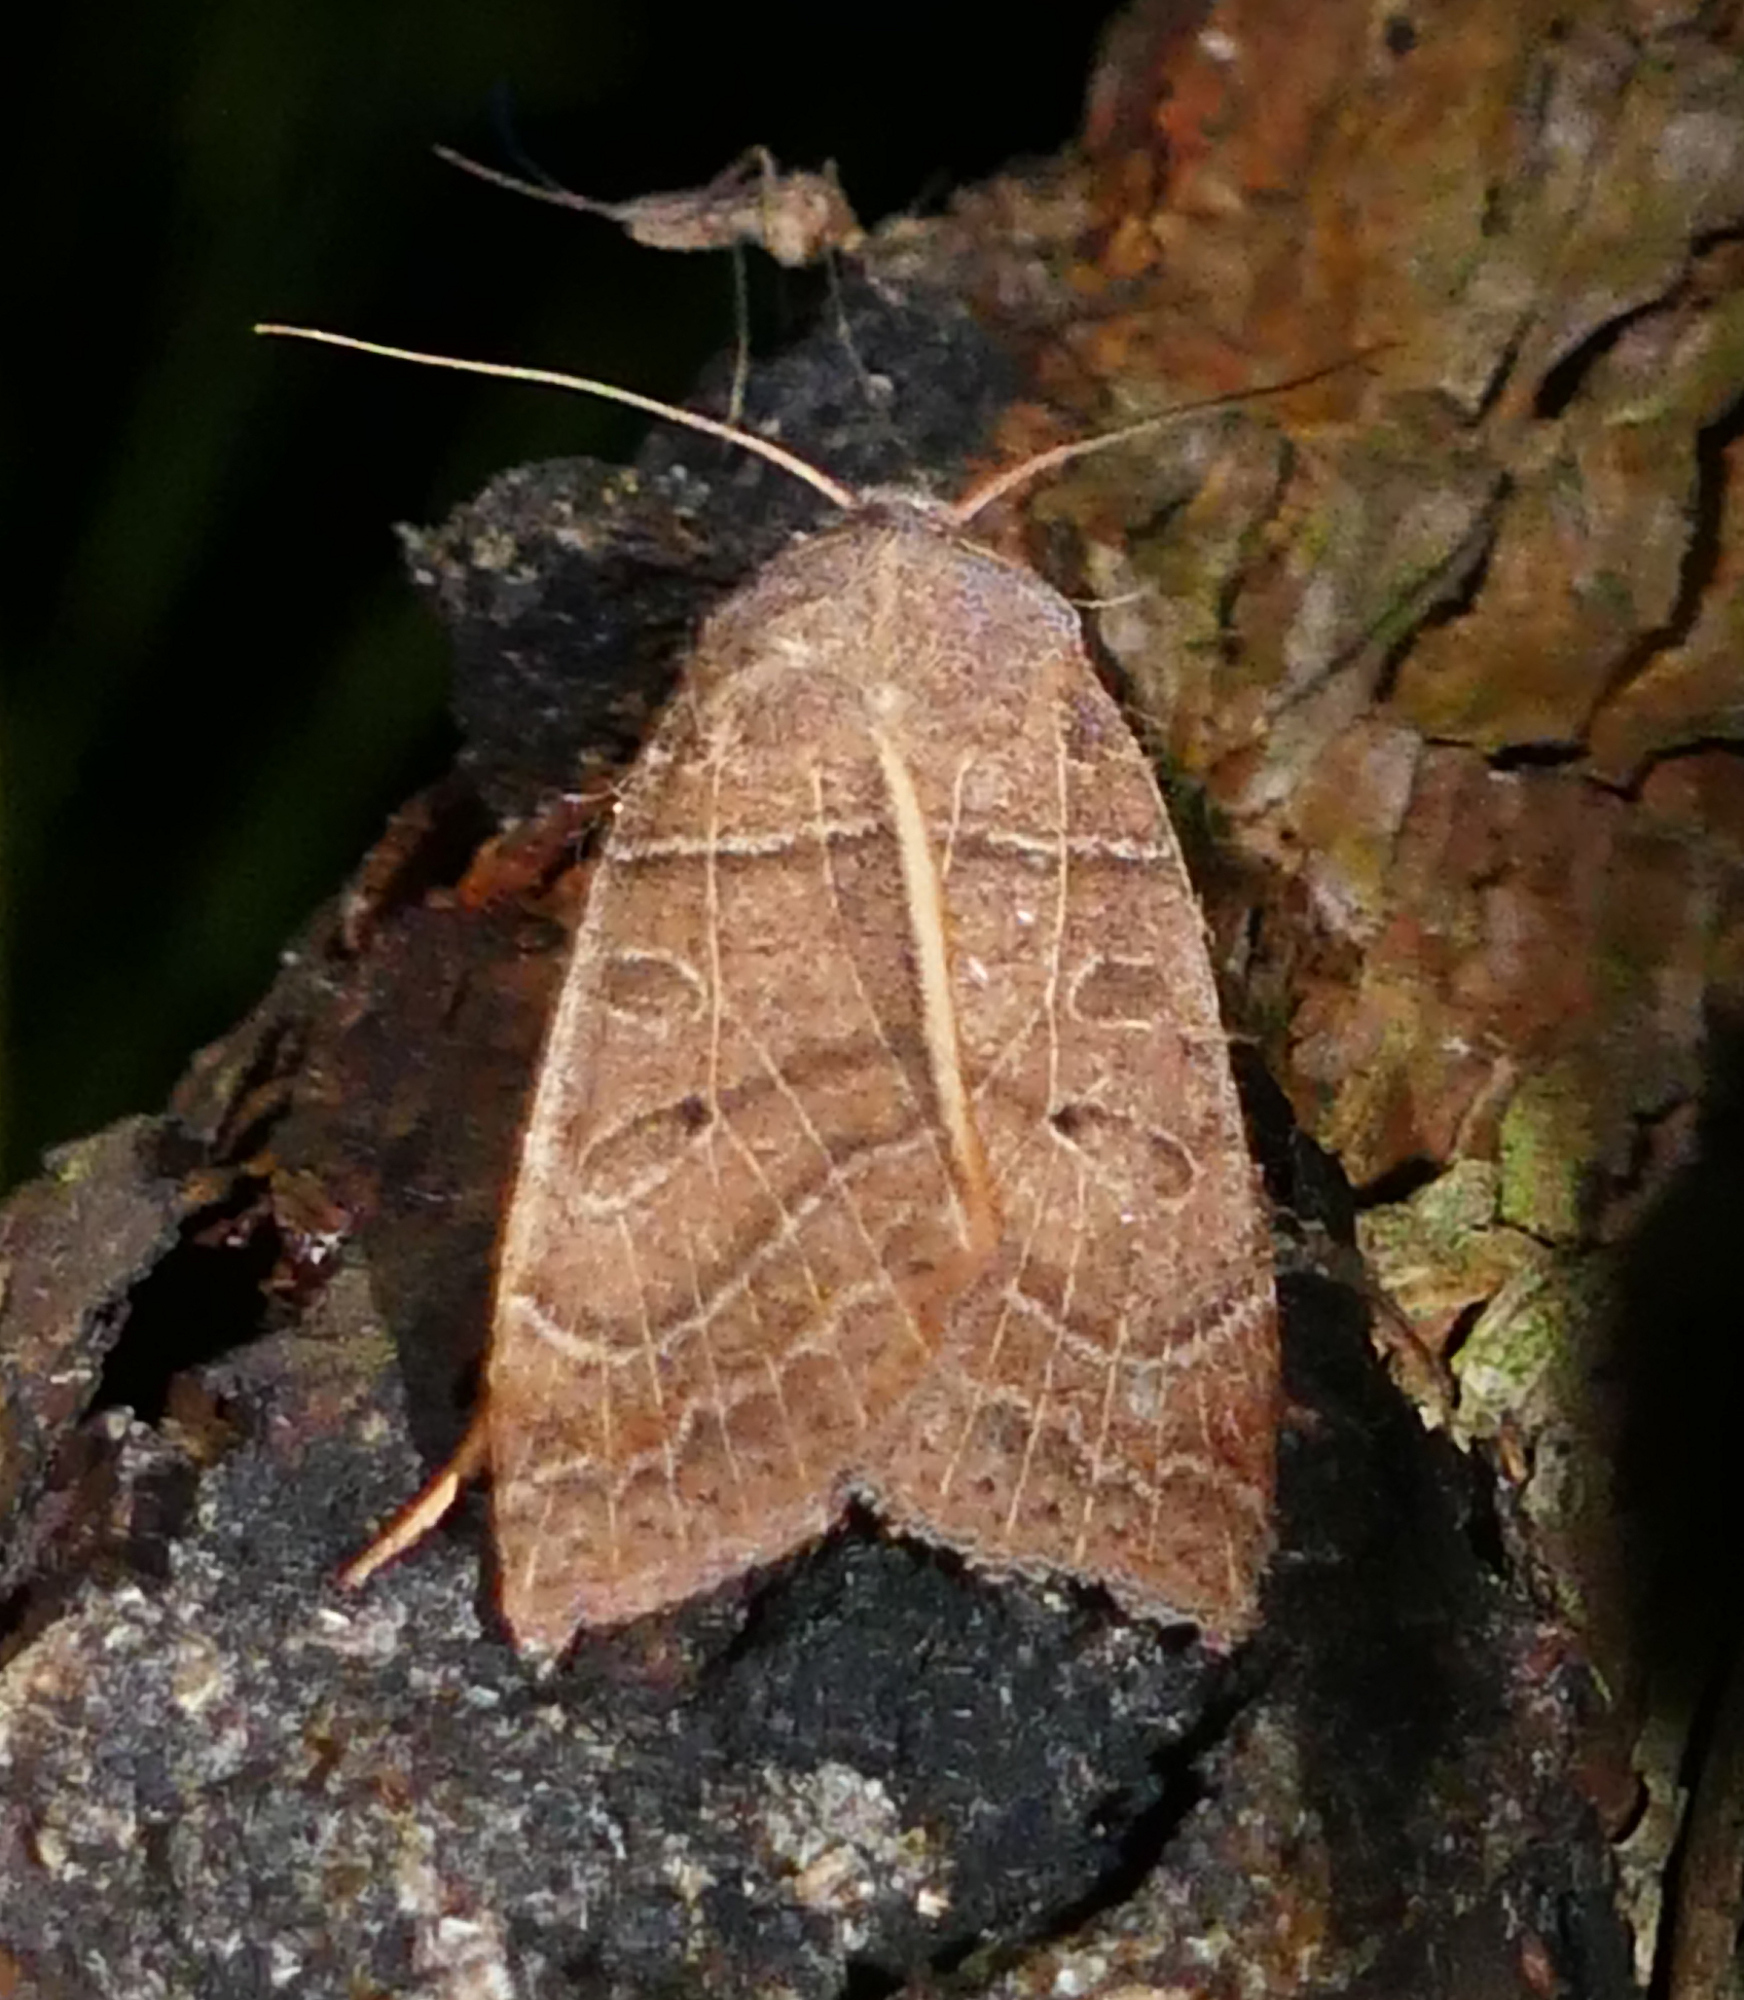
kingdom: Animalia
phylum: Arthropoda
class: Insecta
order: Lepidoptera
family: Noctuidae
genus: Chaetaglaea
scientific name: Chaetaglaea sericea
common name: Silky sallow
